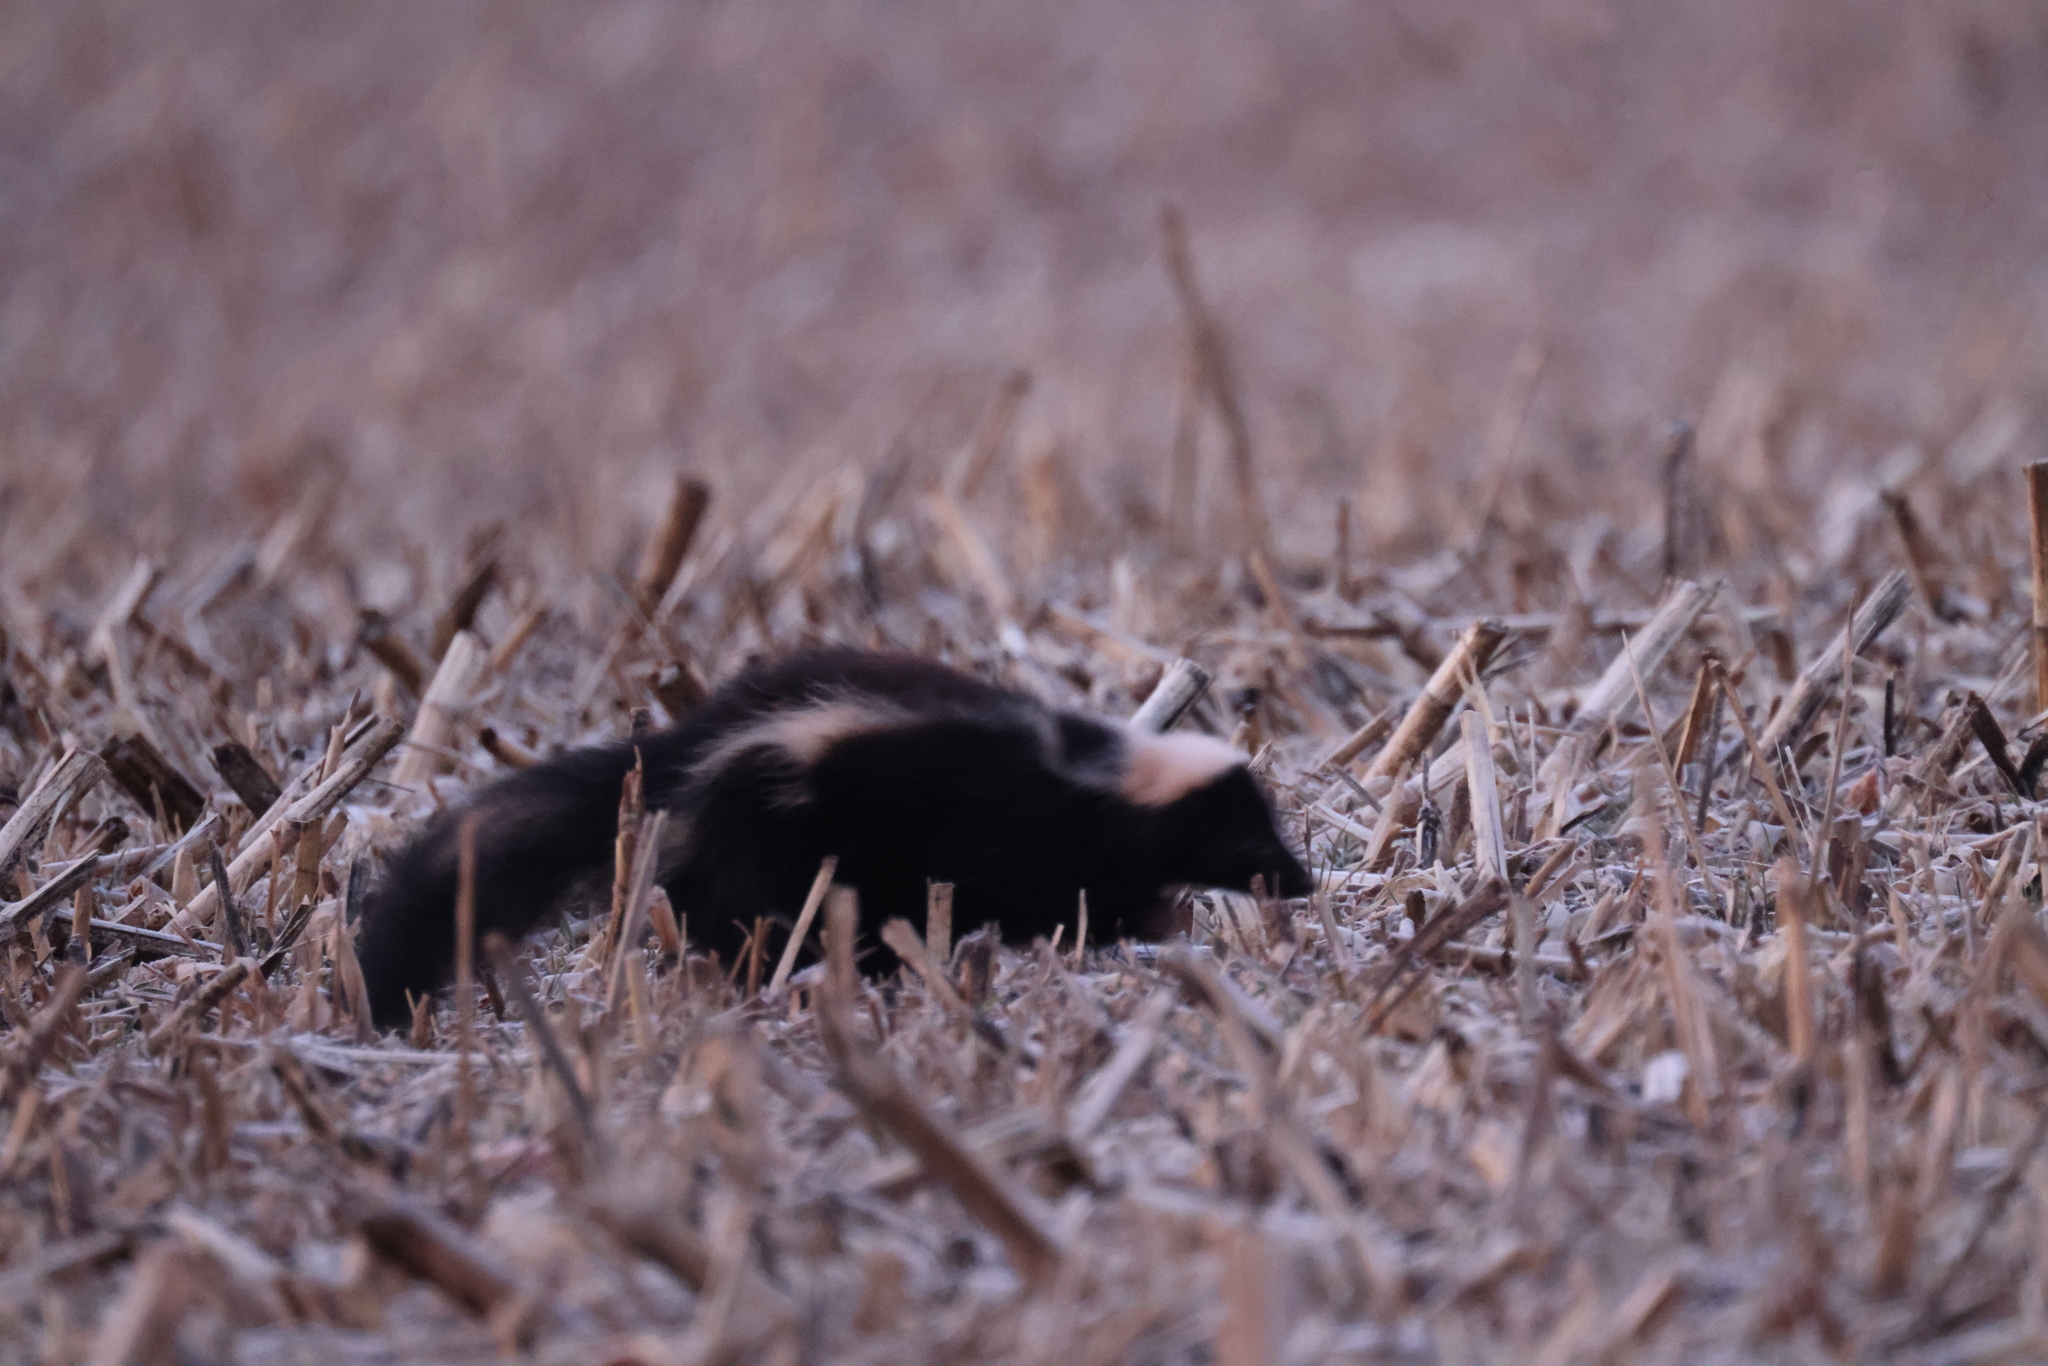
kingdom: Animalia
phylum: Chordata
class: Mammalia
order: Carnivora
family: Mephitidae
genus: Mephitis
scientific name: Mephitis mephitis
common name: Striped skunk
